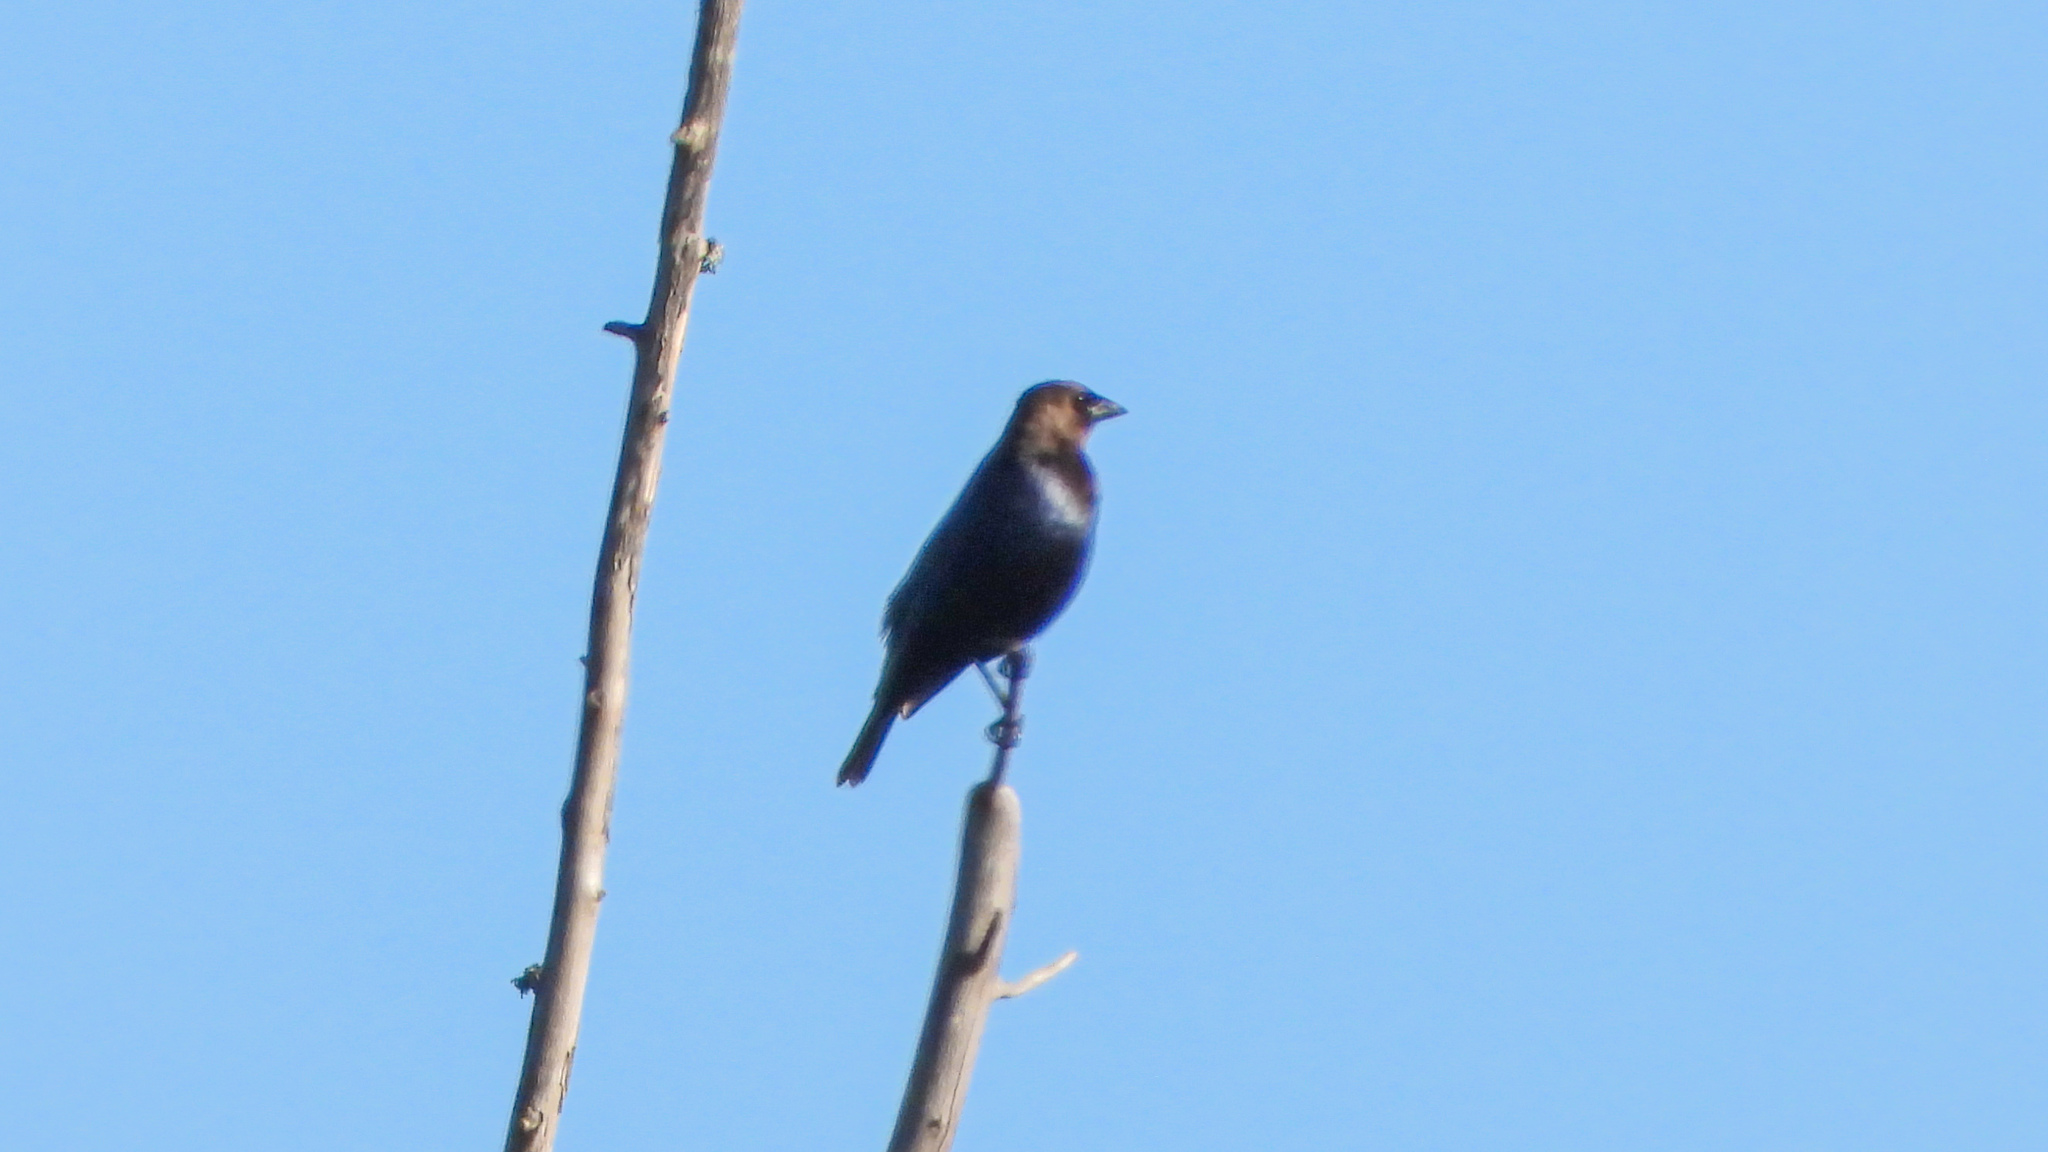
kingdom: Animalia
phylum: Chordata
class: Aves
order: Passeriformes
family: Icteridae
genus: Molothrus
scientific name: Molothrus ater
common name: Brown-headed cowbird
